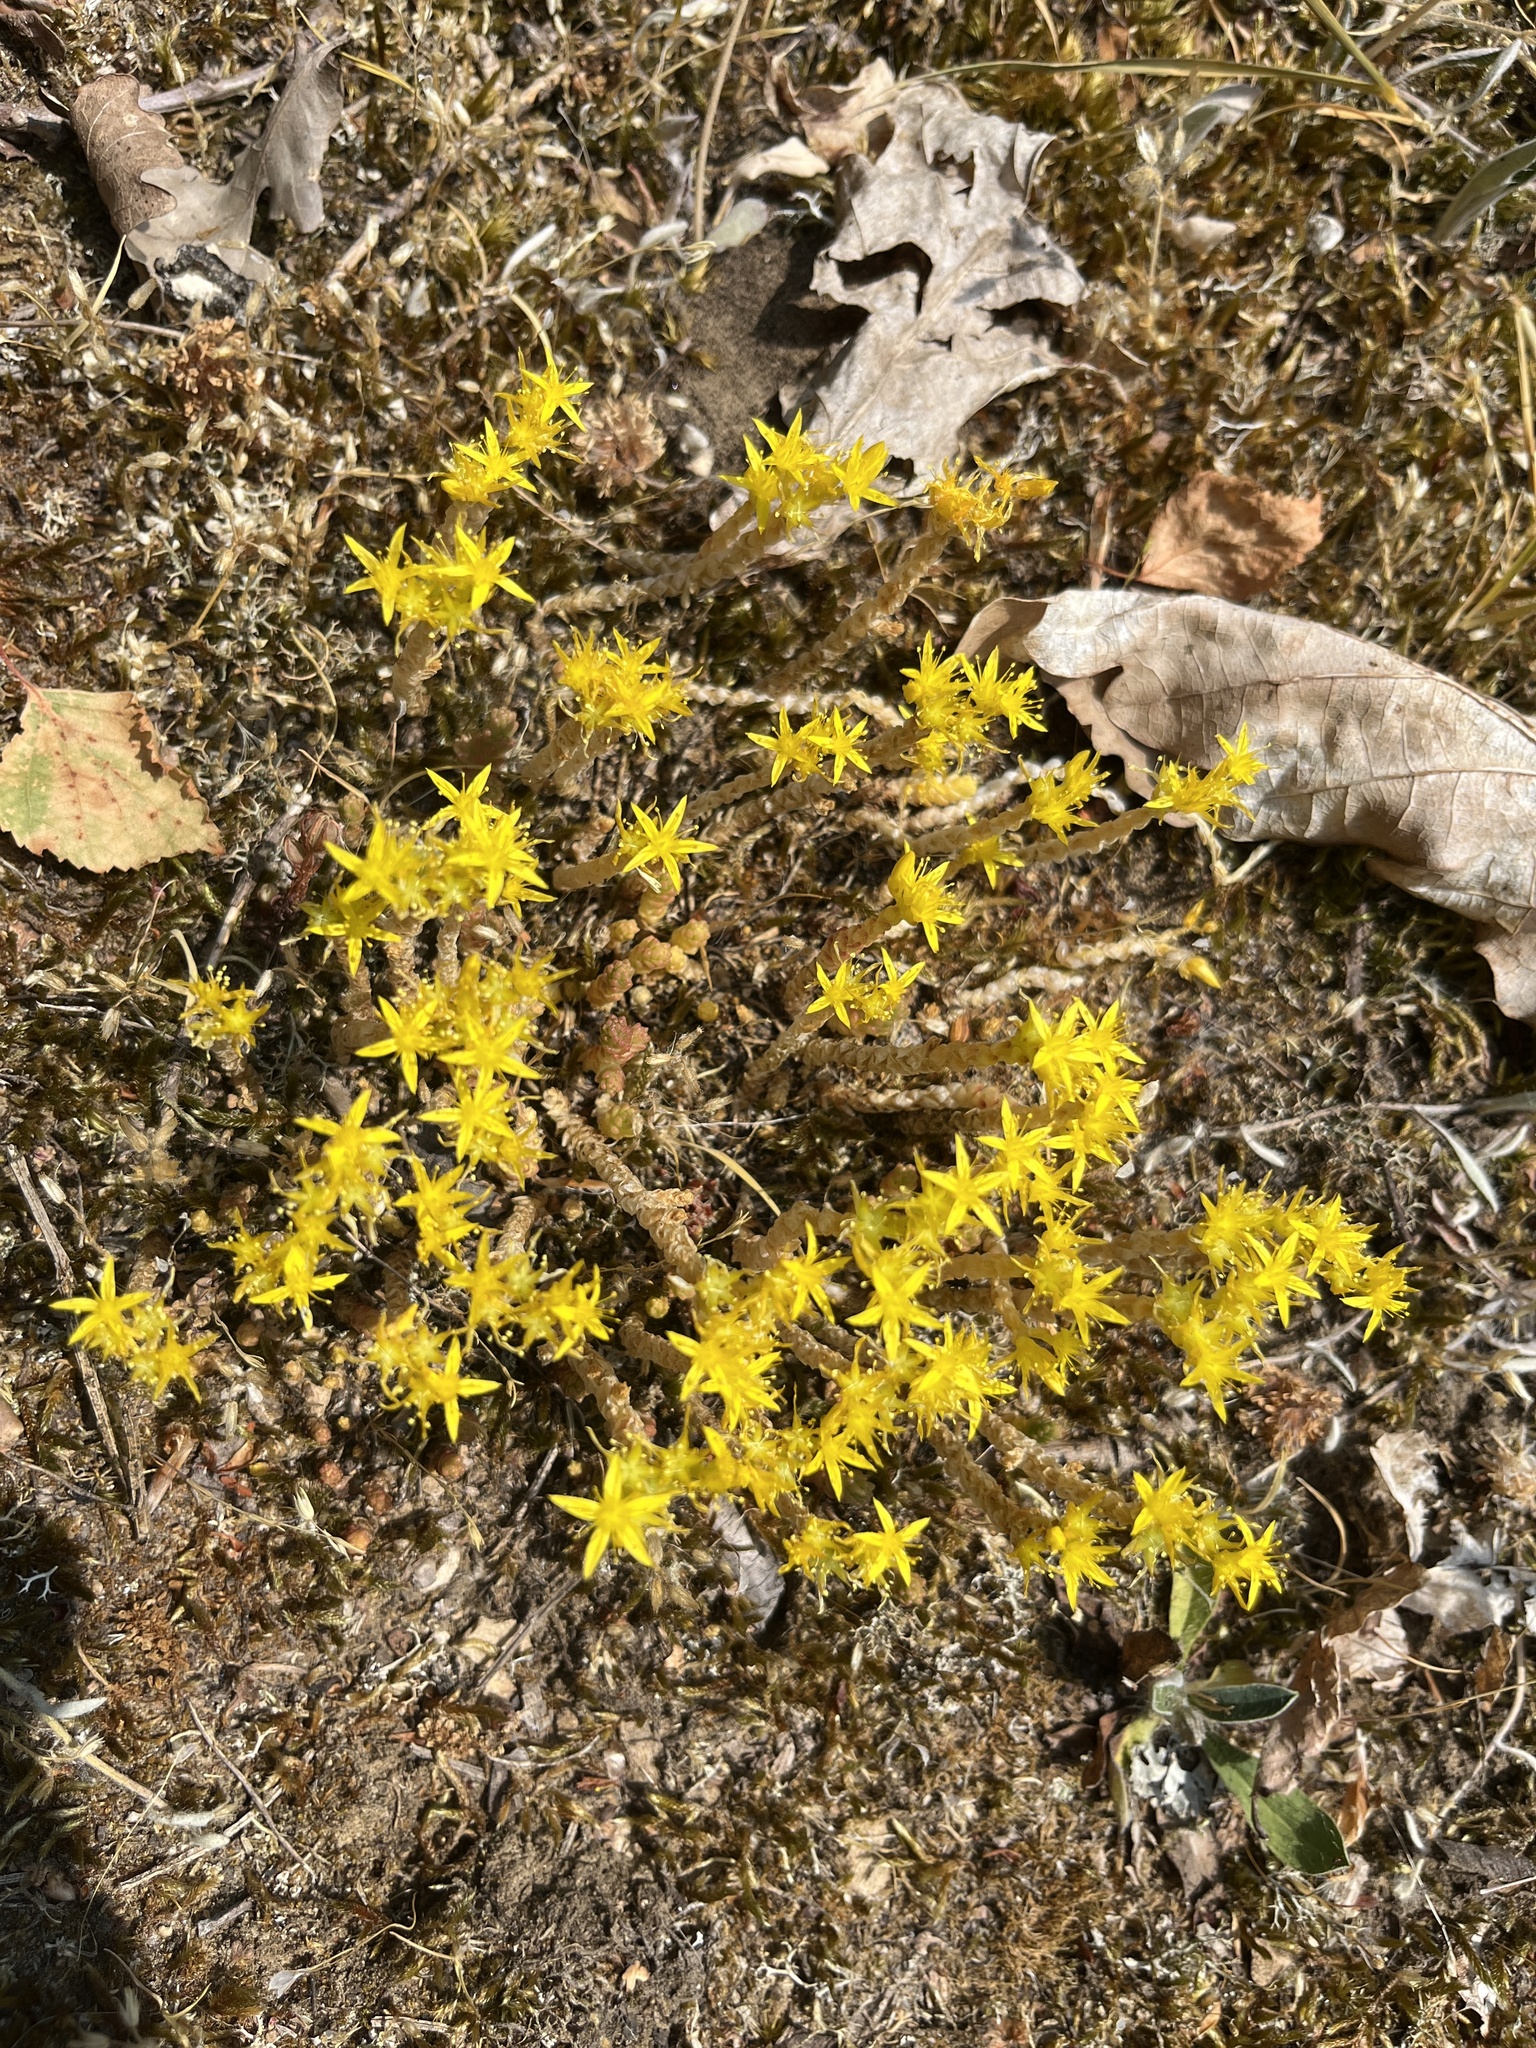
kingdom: Plantae
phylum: Tracheophyta
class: Magnoliopsida
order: Saxifragales
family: Crassulaceae
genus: Sedum
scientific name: Sedum acre
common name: Biting stonecrop
